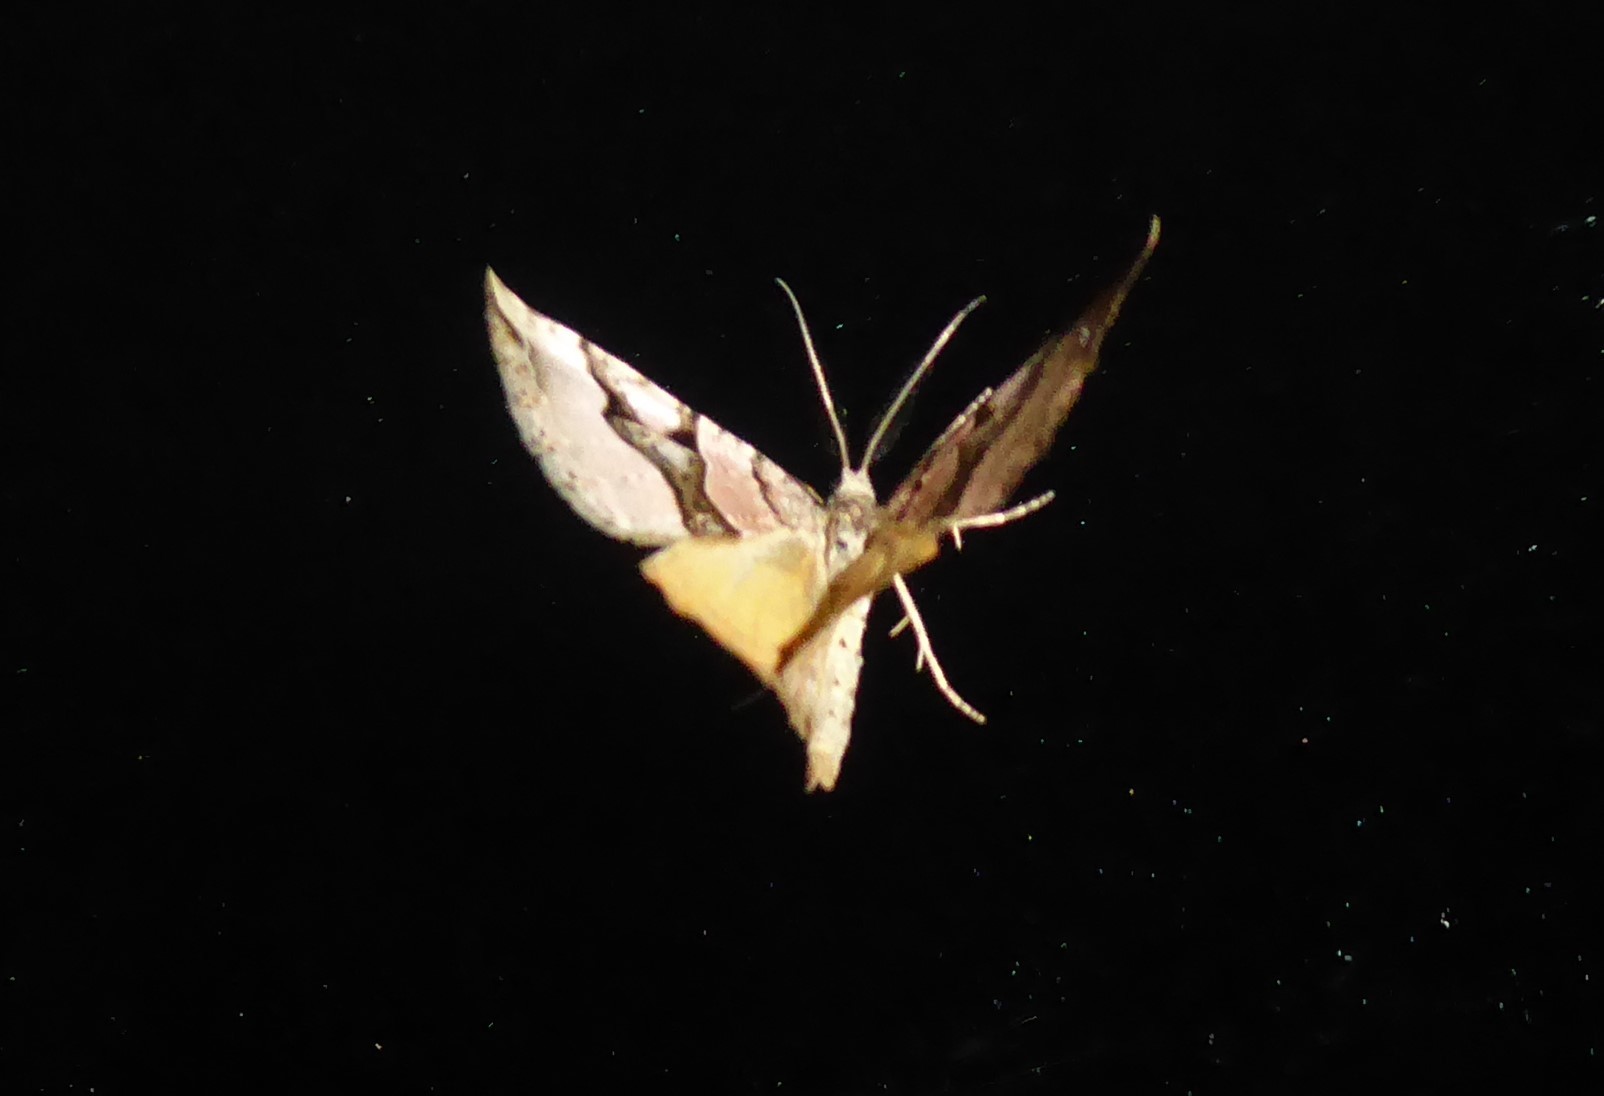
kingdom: Animalia
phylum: Arthropoda
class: Insecta
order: Lepidoptera
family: Geometridae
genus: Xanthorhoe
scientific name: Xanthorhoe semifissata
